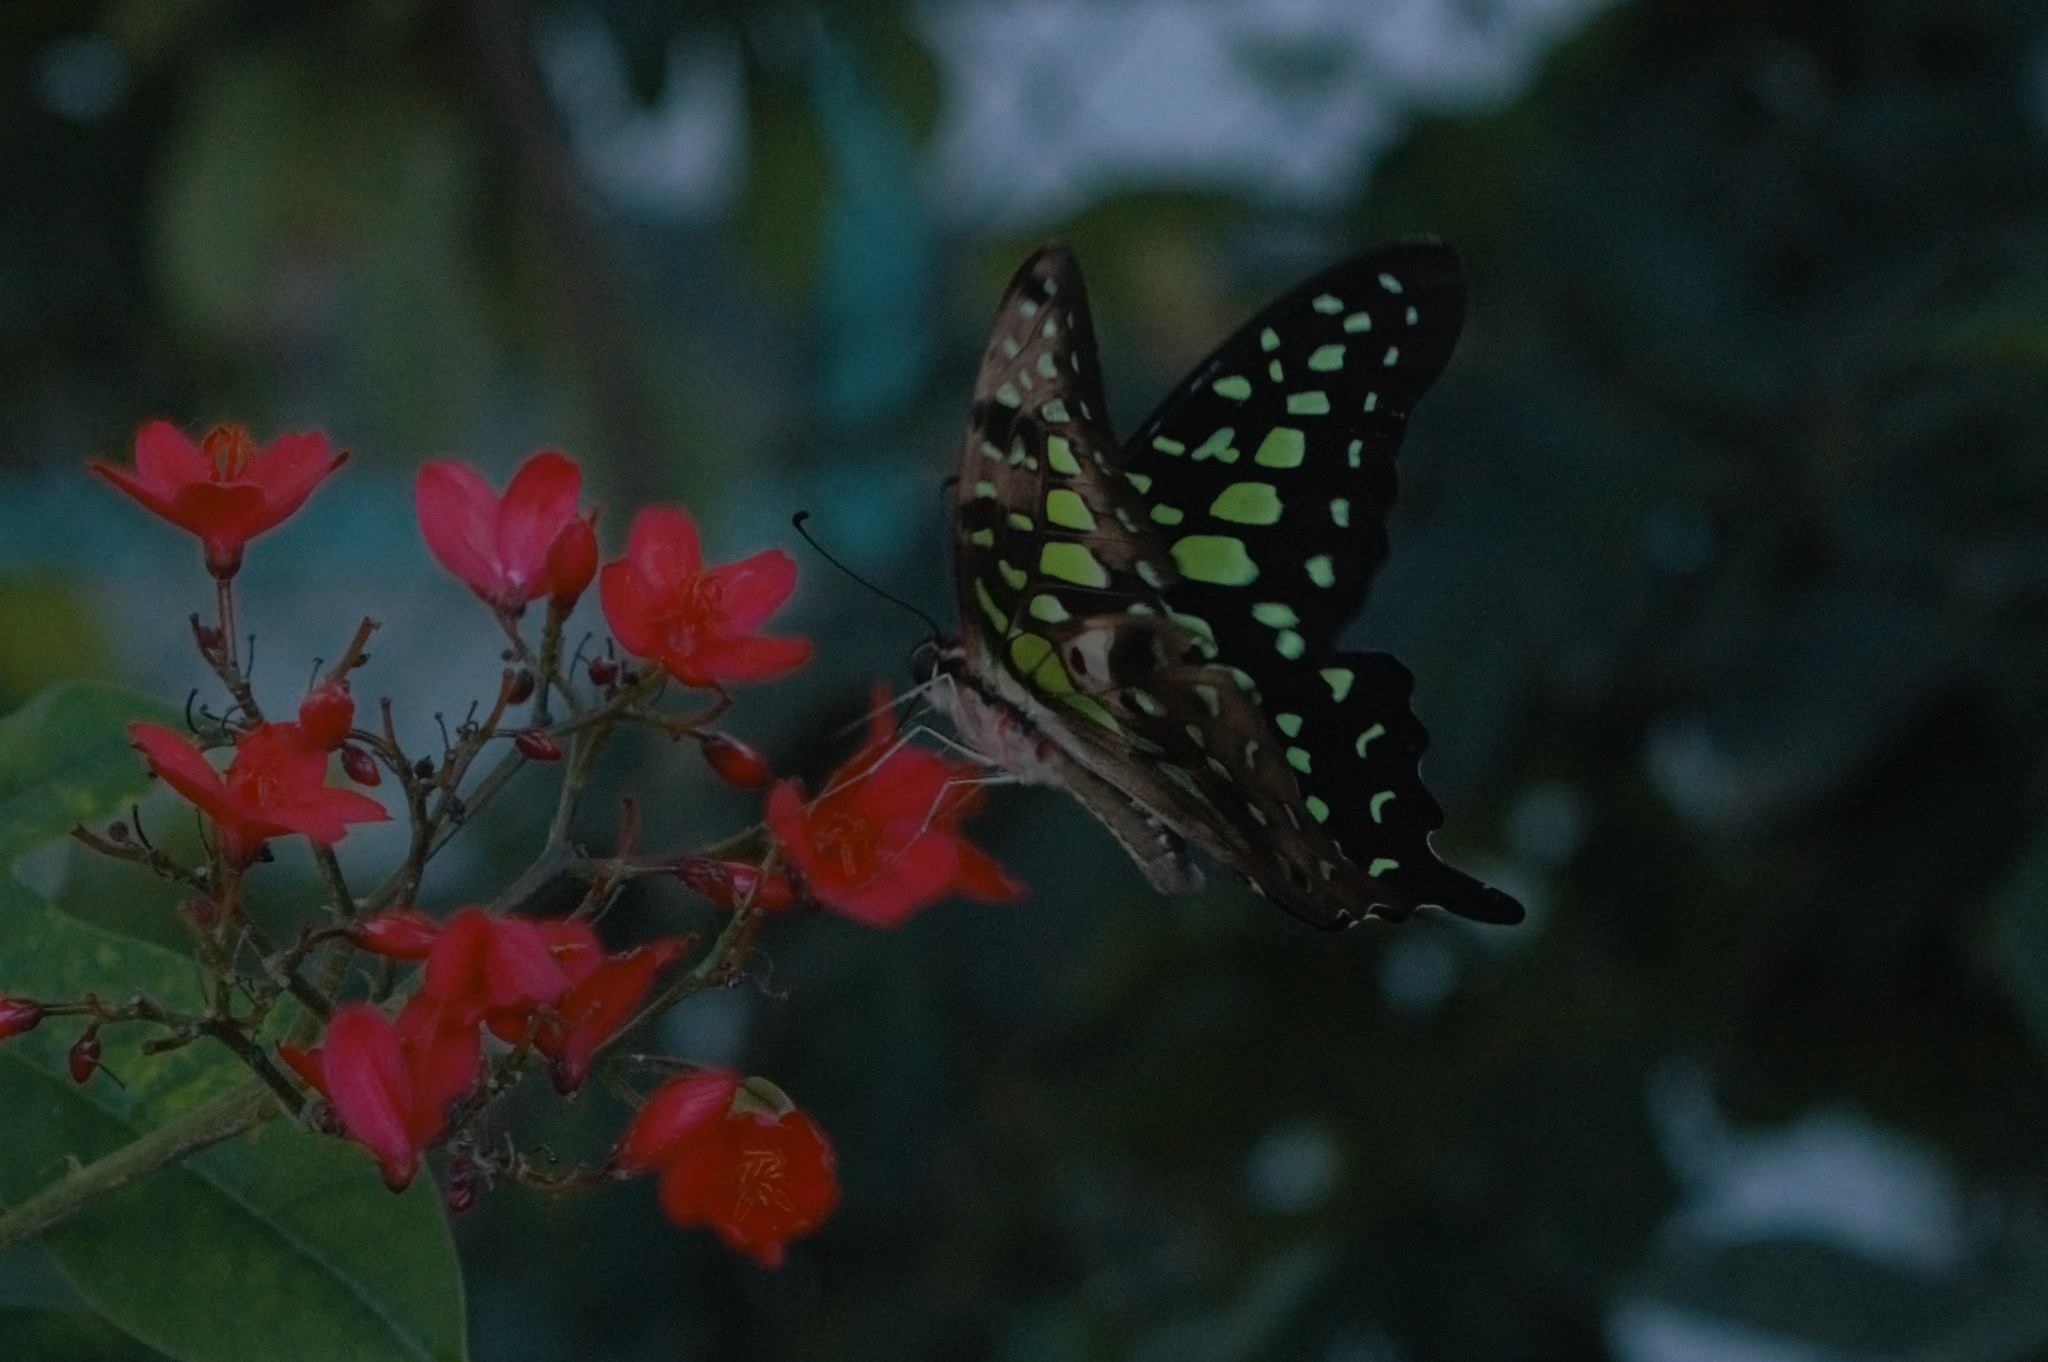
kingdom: Animalia
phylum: Arthropoda
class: Insecta
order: Lepidoptera
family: Papilionidae
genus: Graphium
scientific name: Graphium agamemnon
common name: Tailed jay
